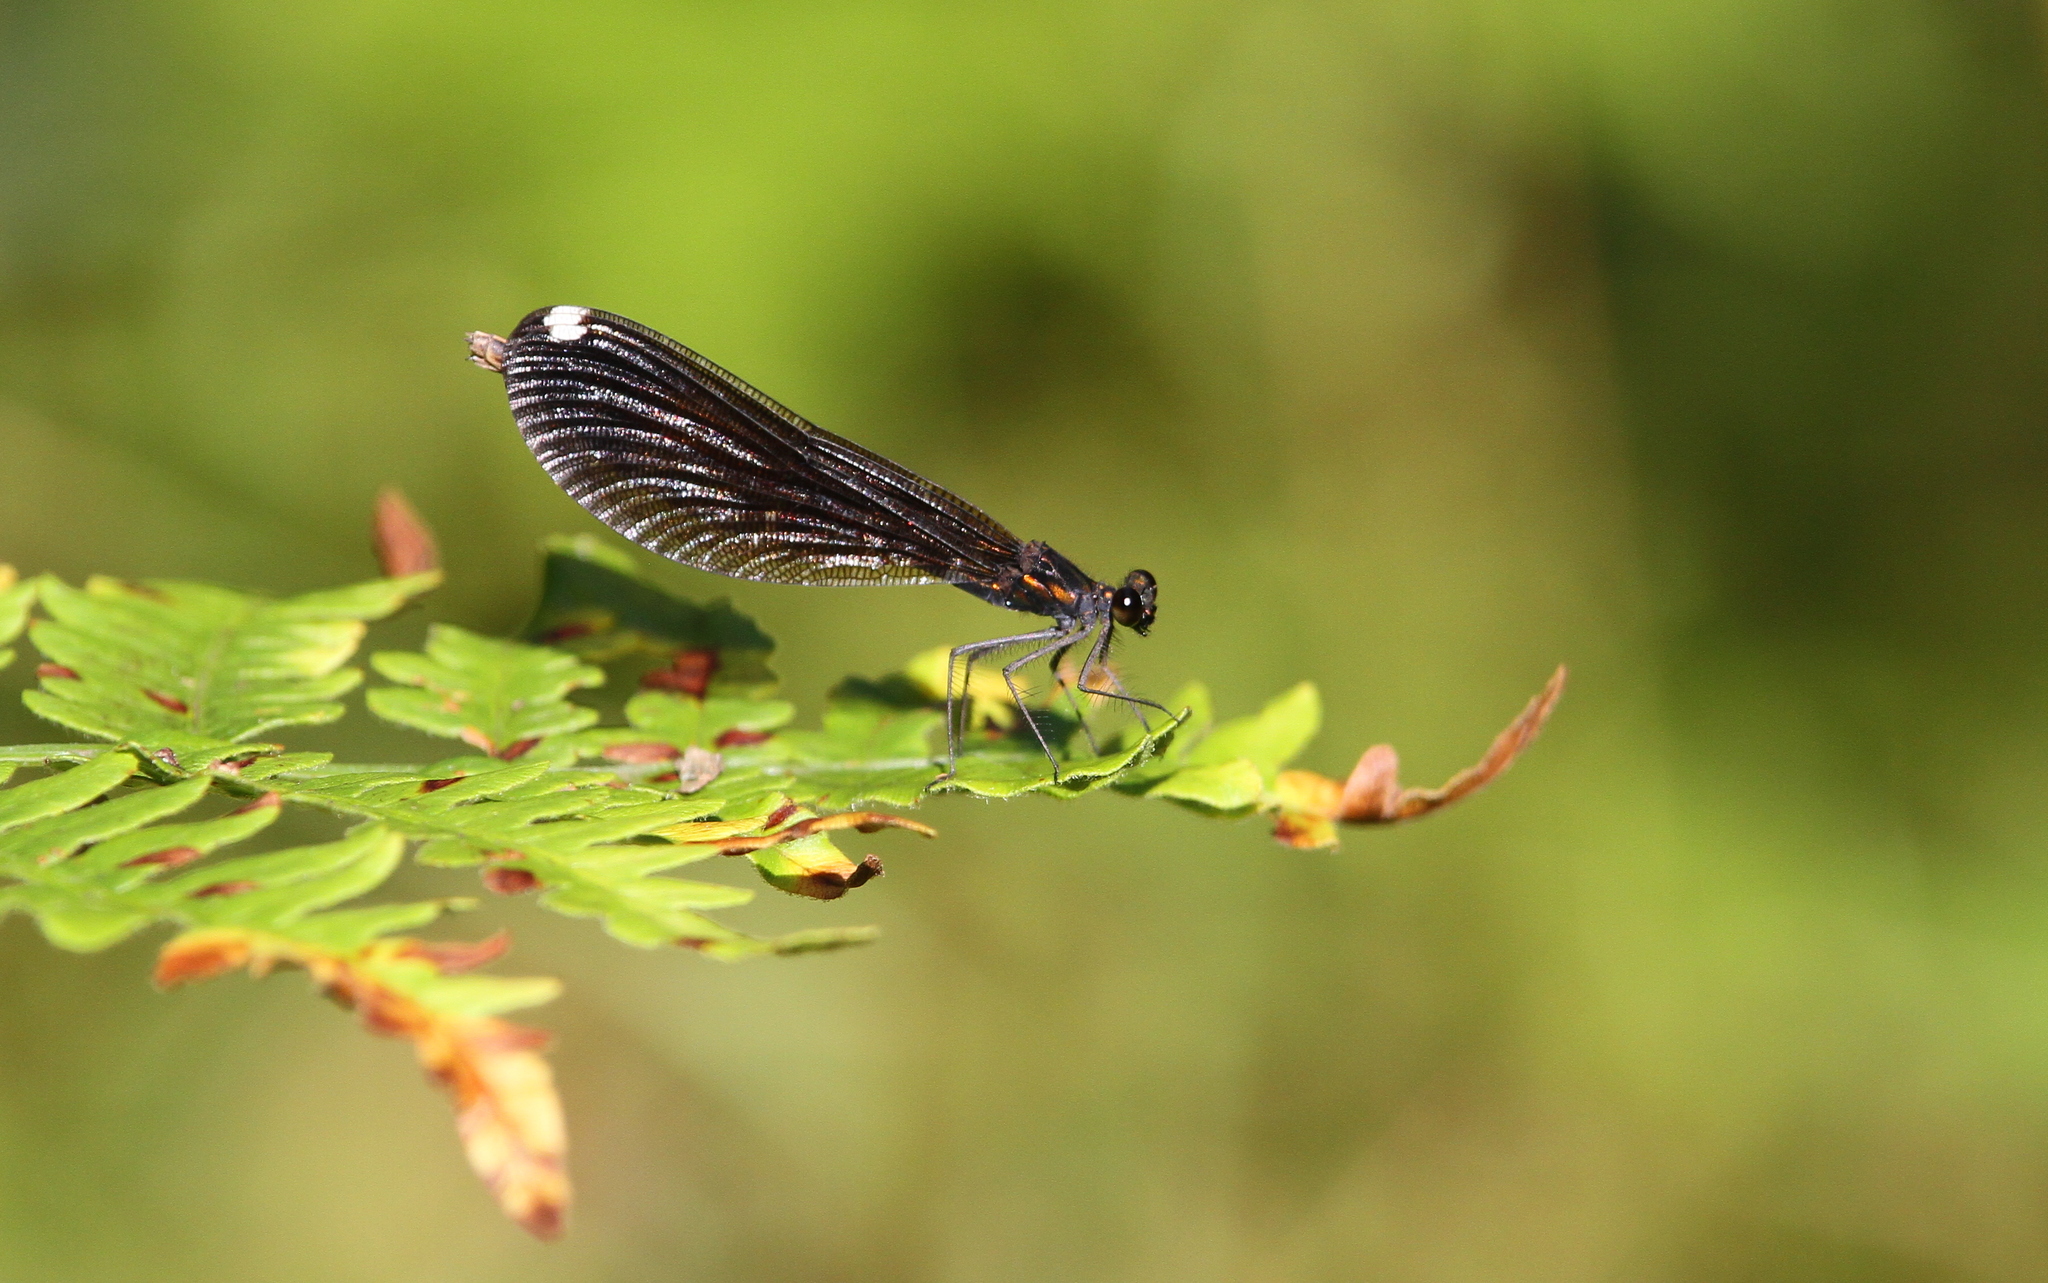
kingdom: Animalia
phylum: Arthropoda
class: Insecta
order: Odonata
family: Calopterygidae
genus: Calopteryx
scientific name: Calopteryx maculata
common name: Ebony jewelwing
